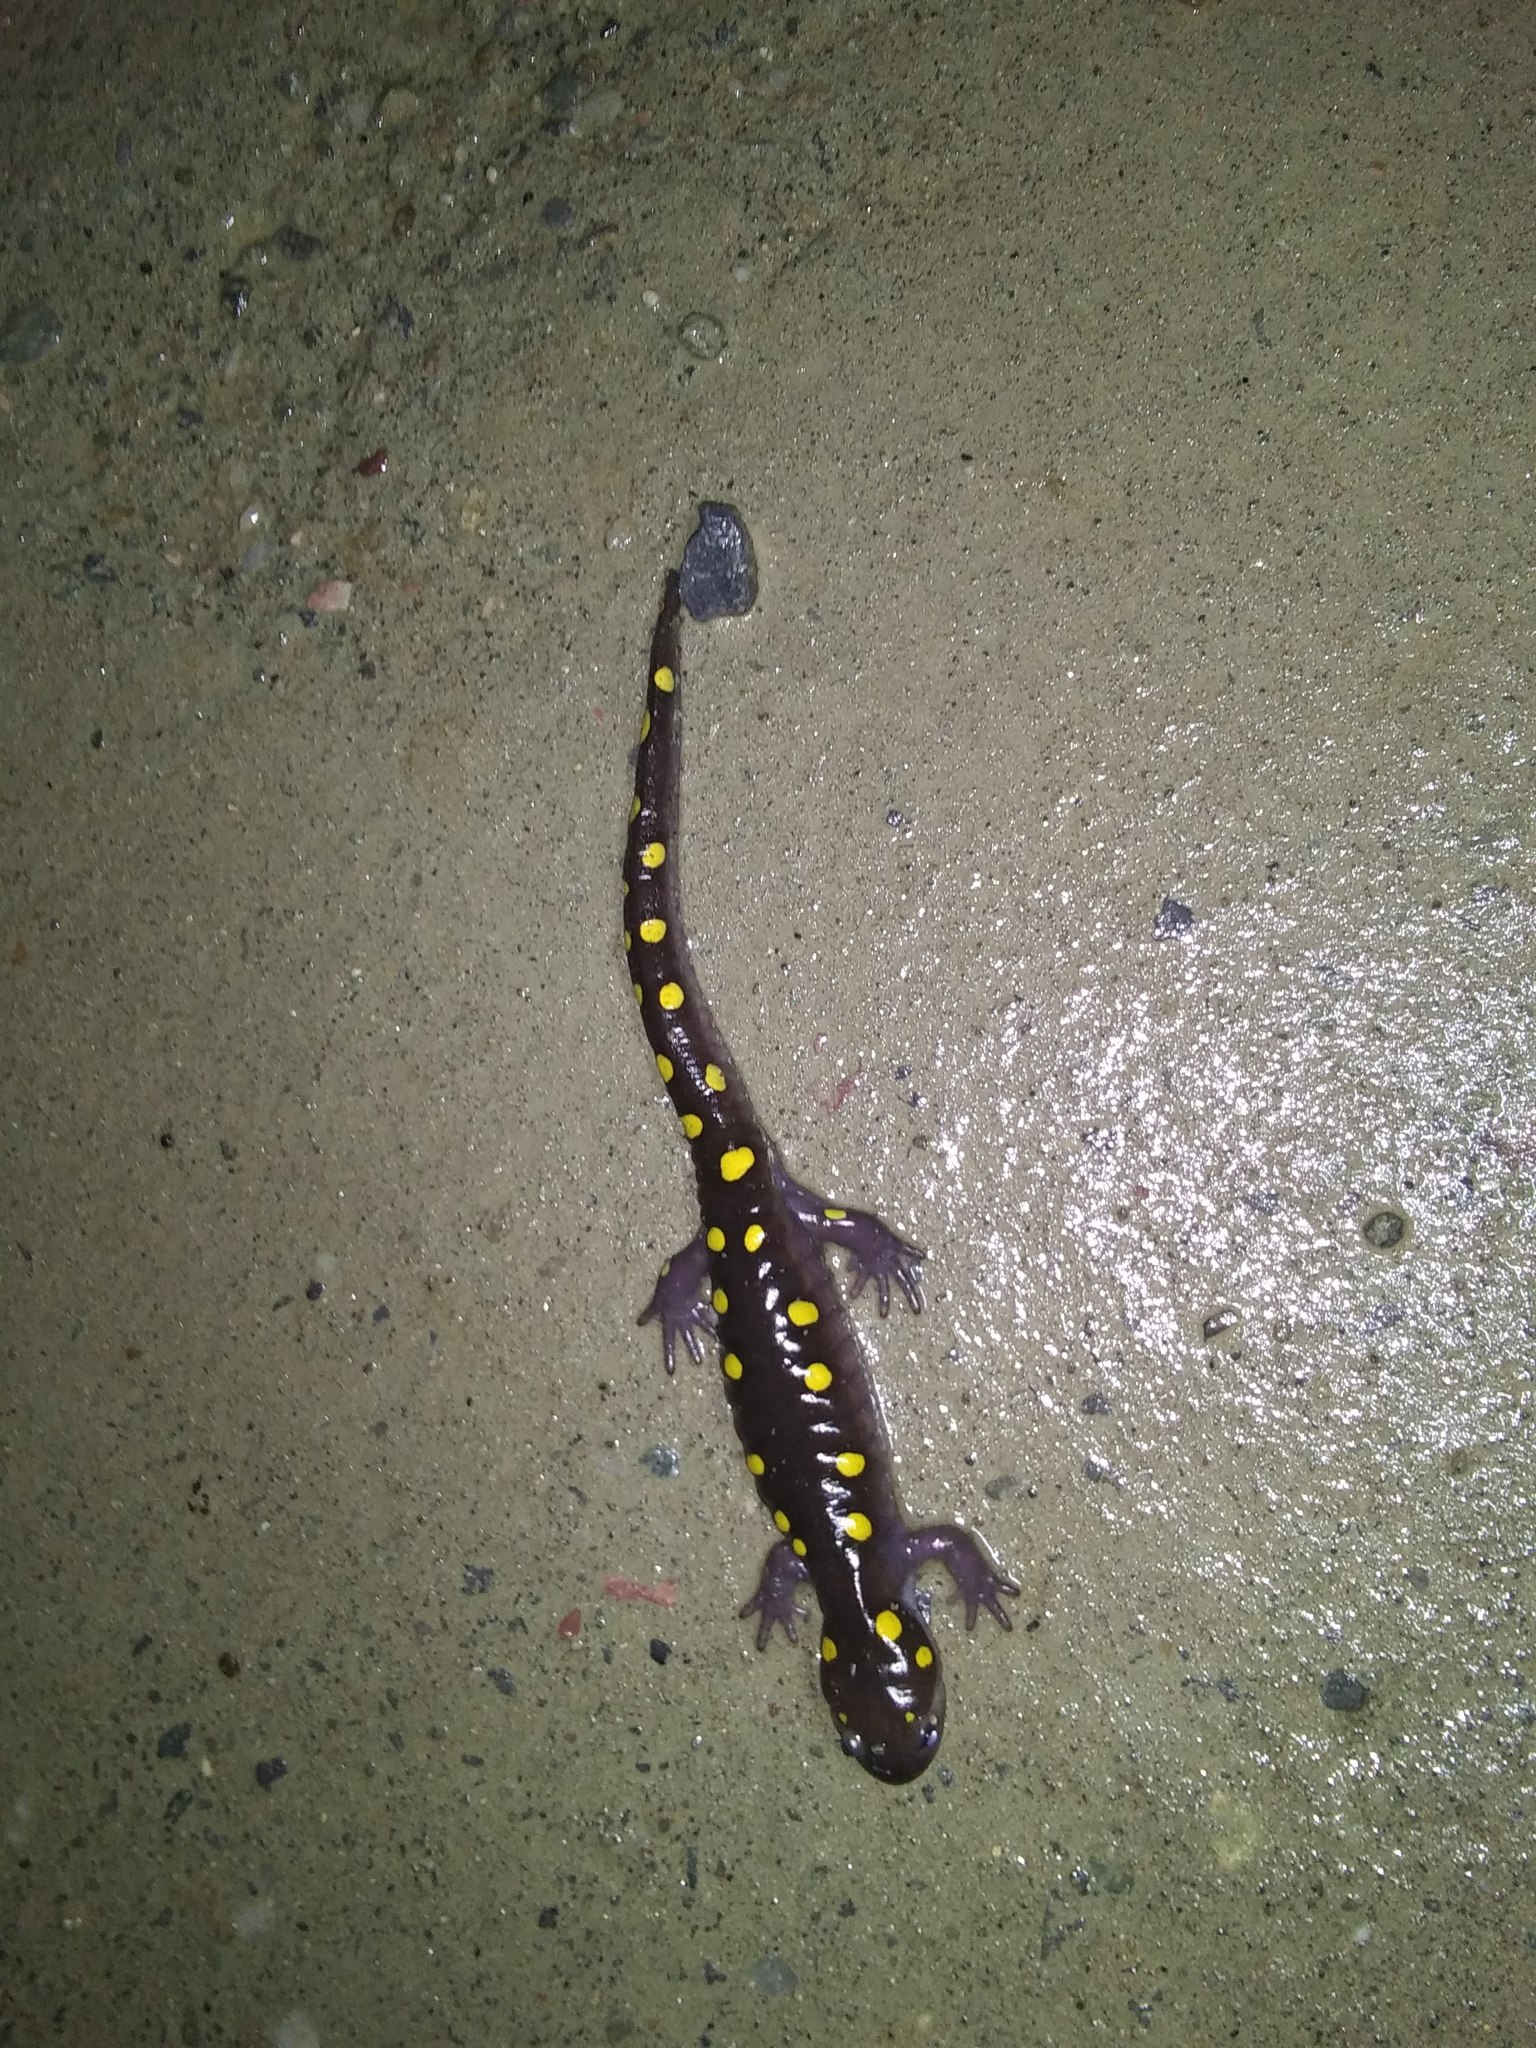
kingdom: Animalia
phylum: Chordata
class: Amphibia
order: Caudata
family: Ambystomatidae
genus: Ambystoma
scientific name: Ambystoma maculatum
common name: Spotted salamander
